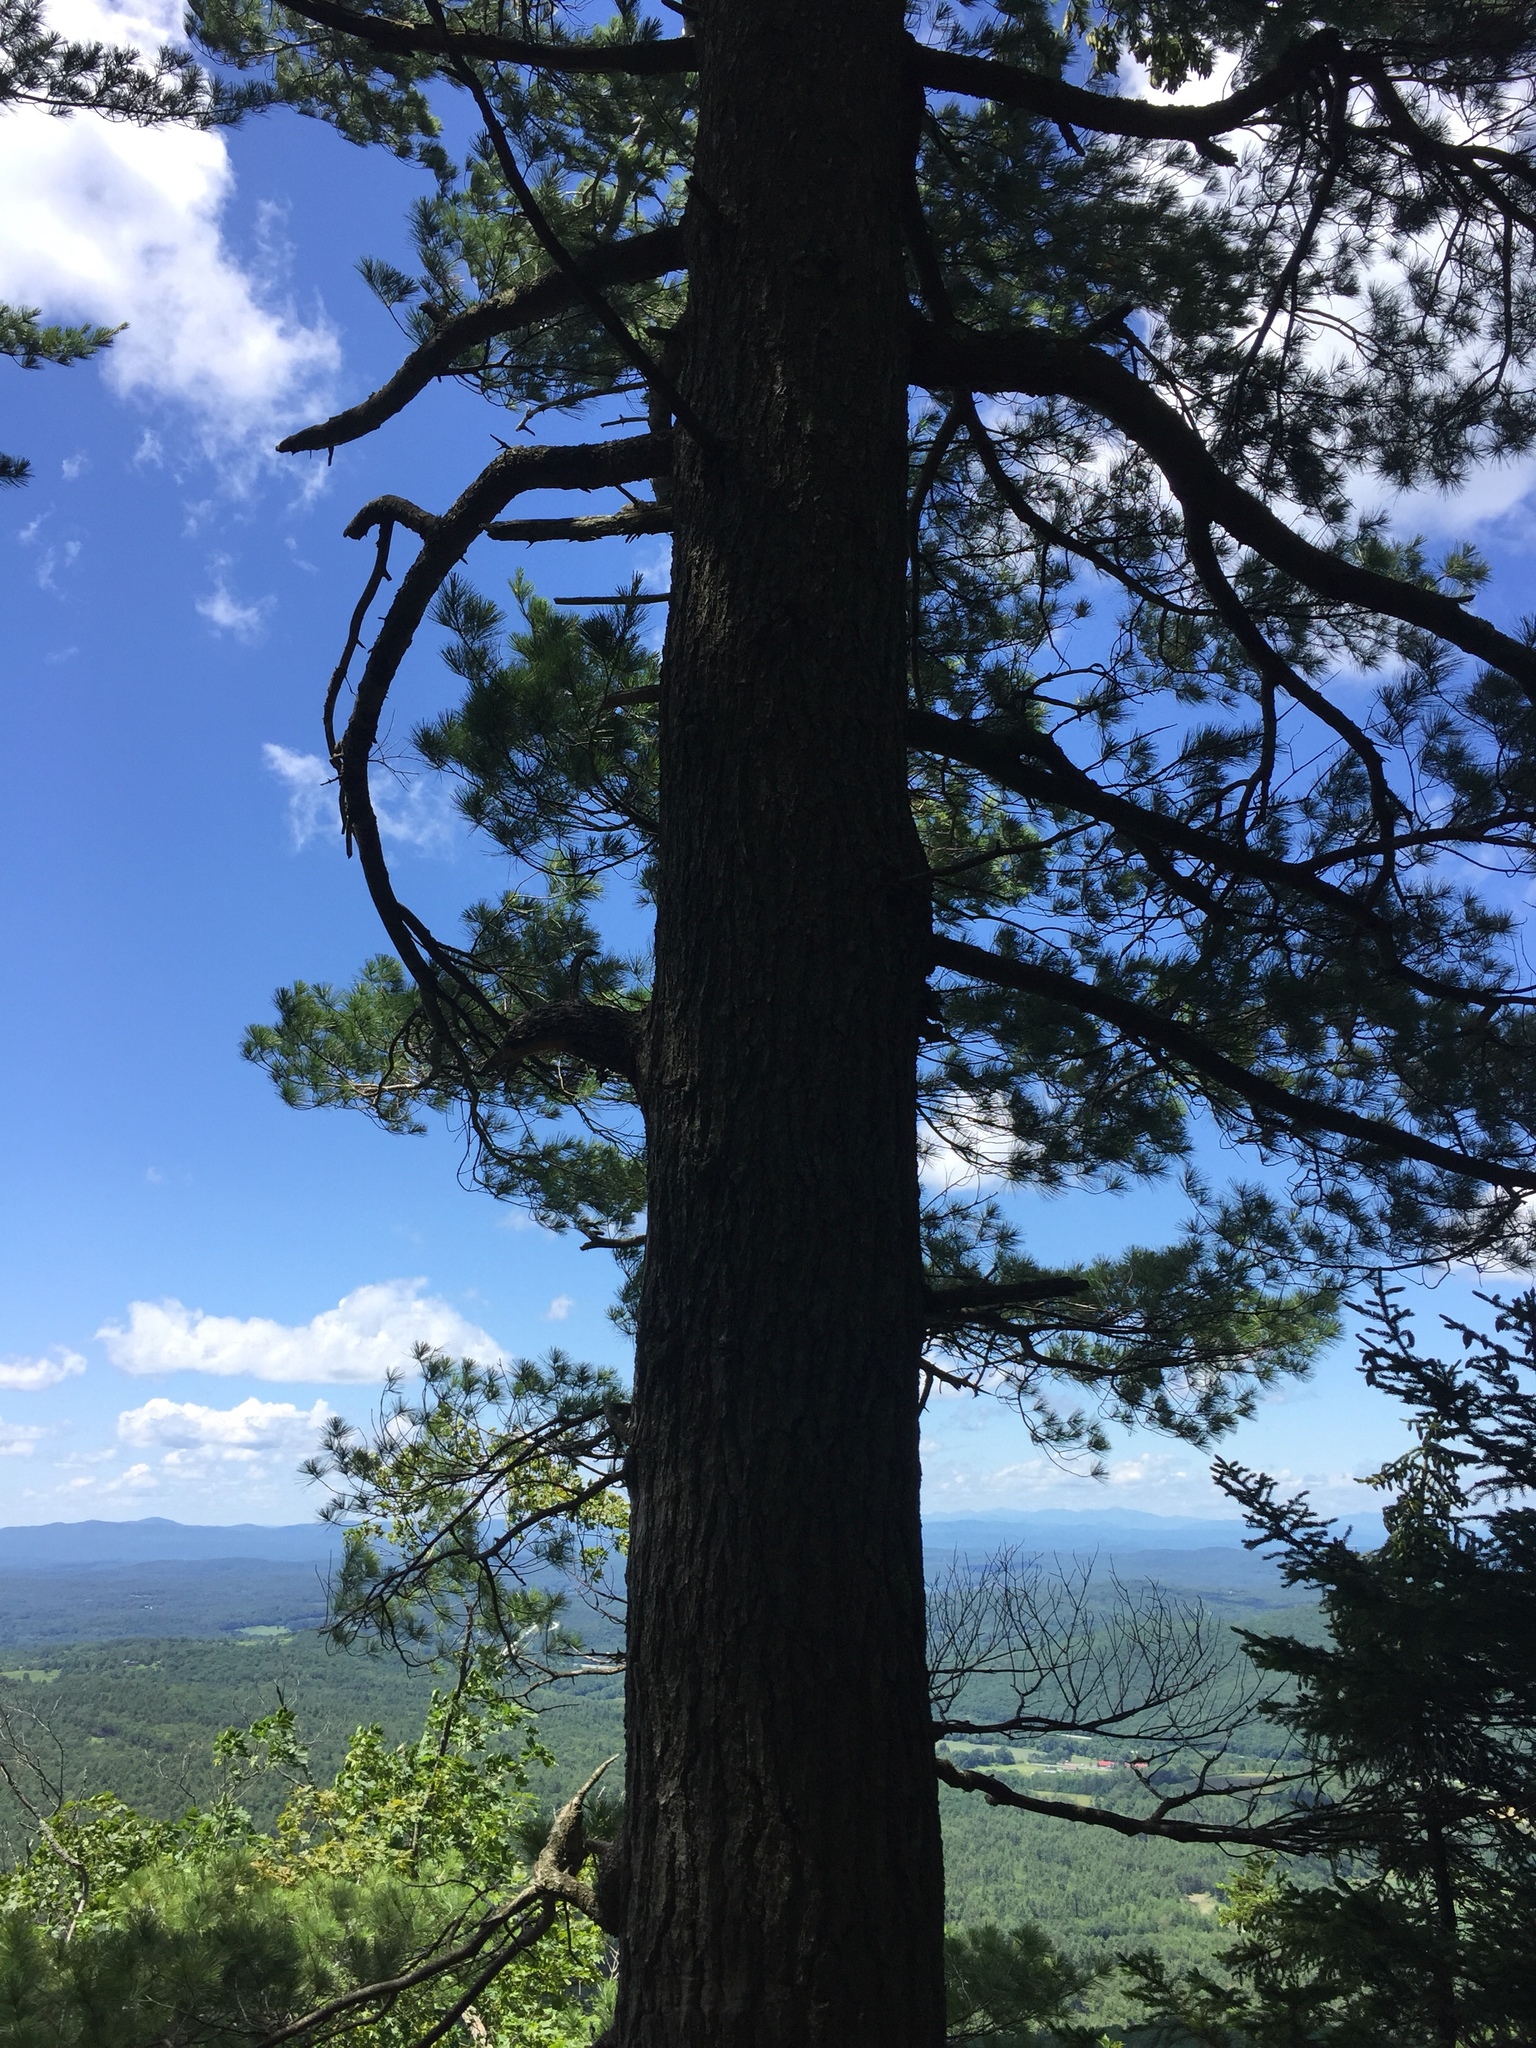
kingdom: Plantae
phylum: Tracheophyta
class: Pinopsida
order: Pinales
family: Pinaceae
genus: Pinus
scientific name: Pinus strobus
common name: Weymouth pine
